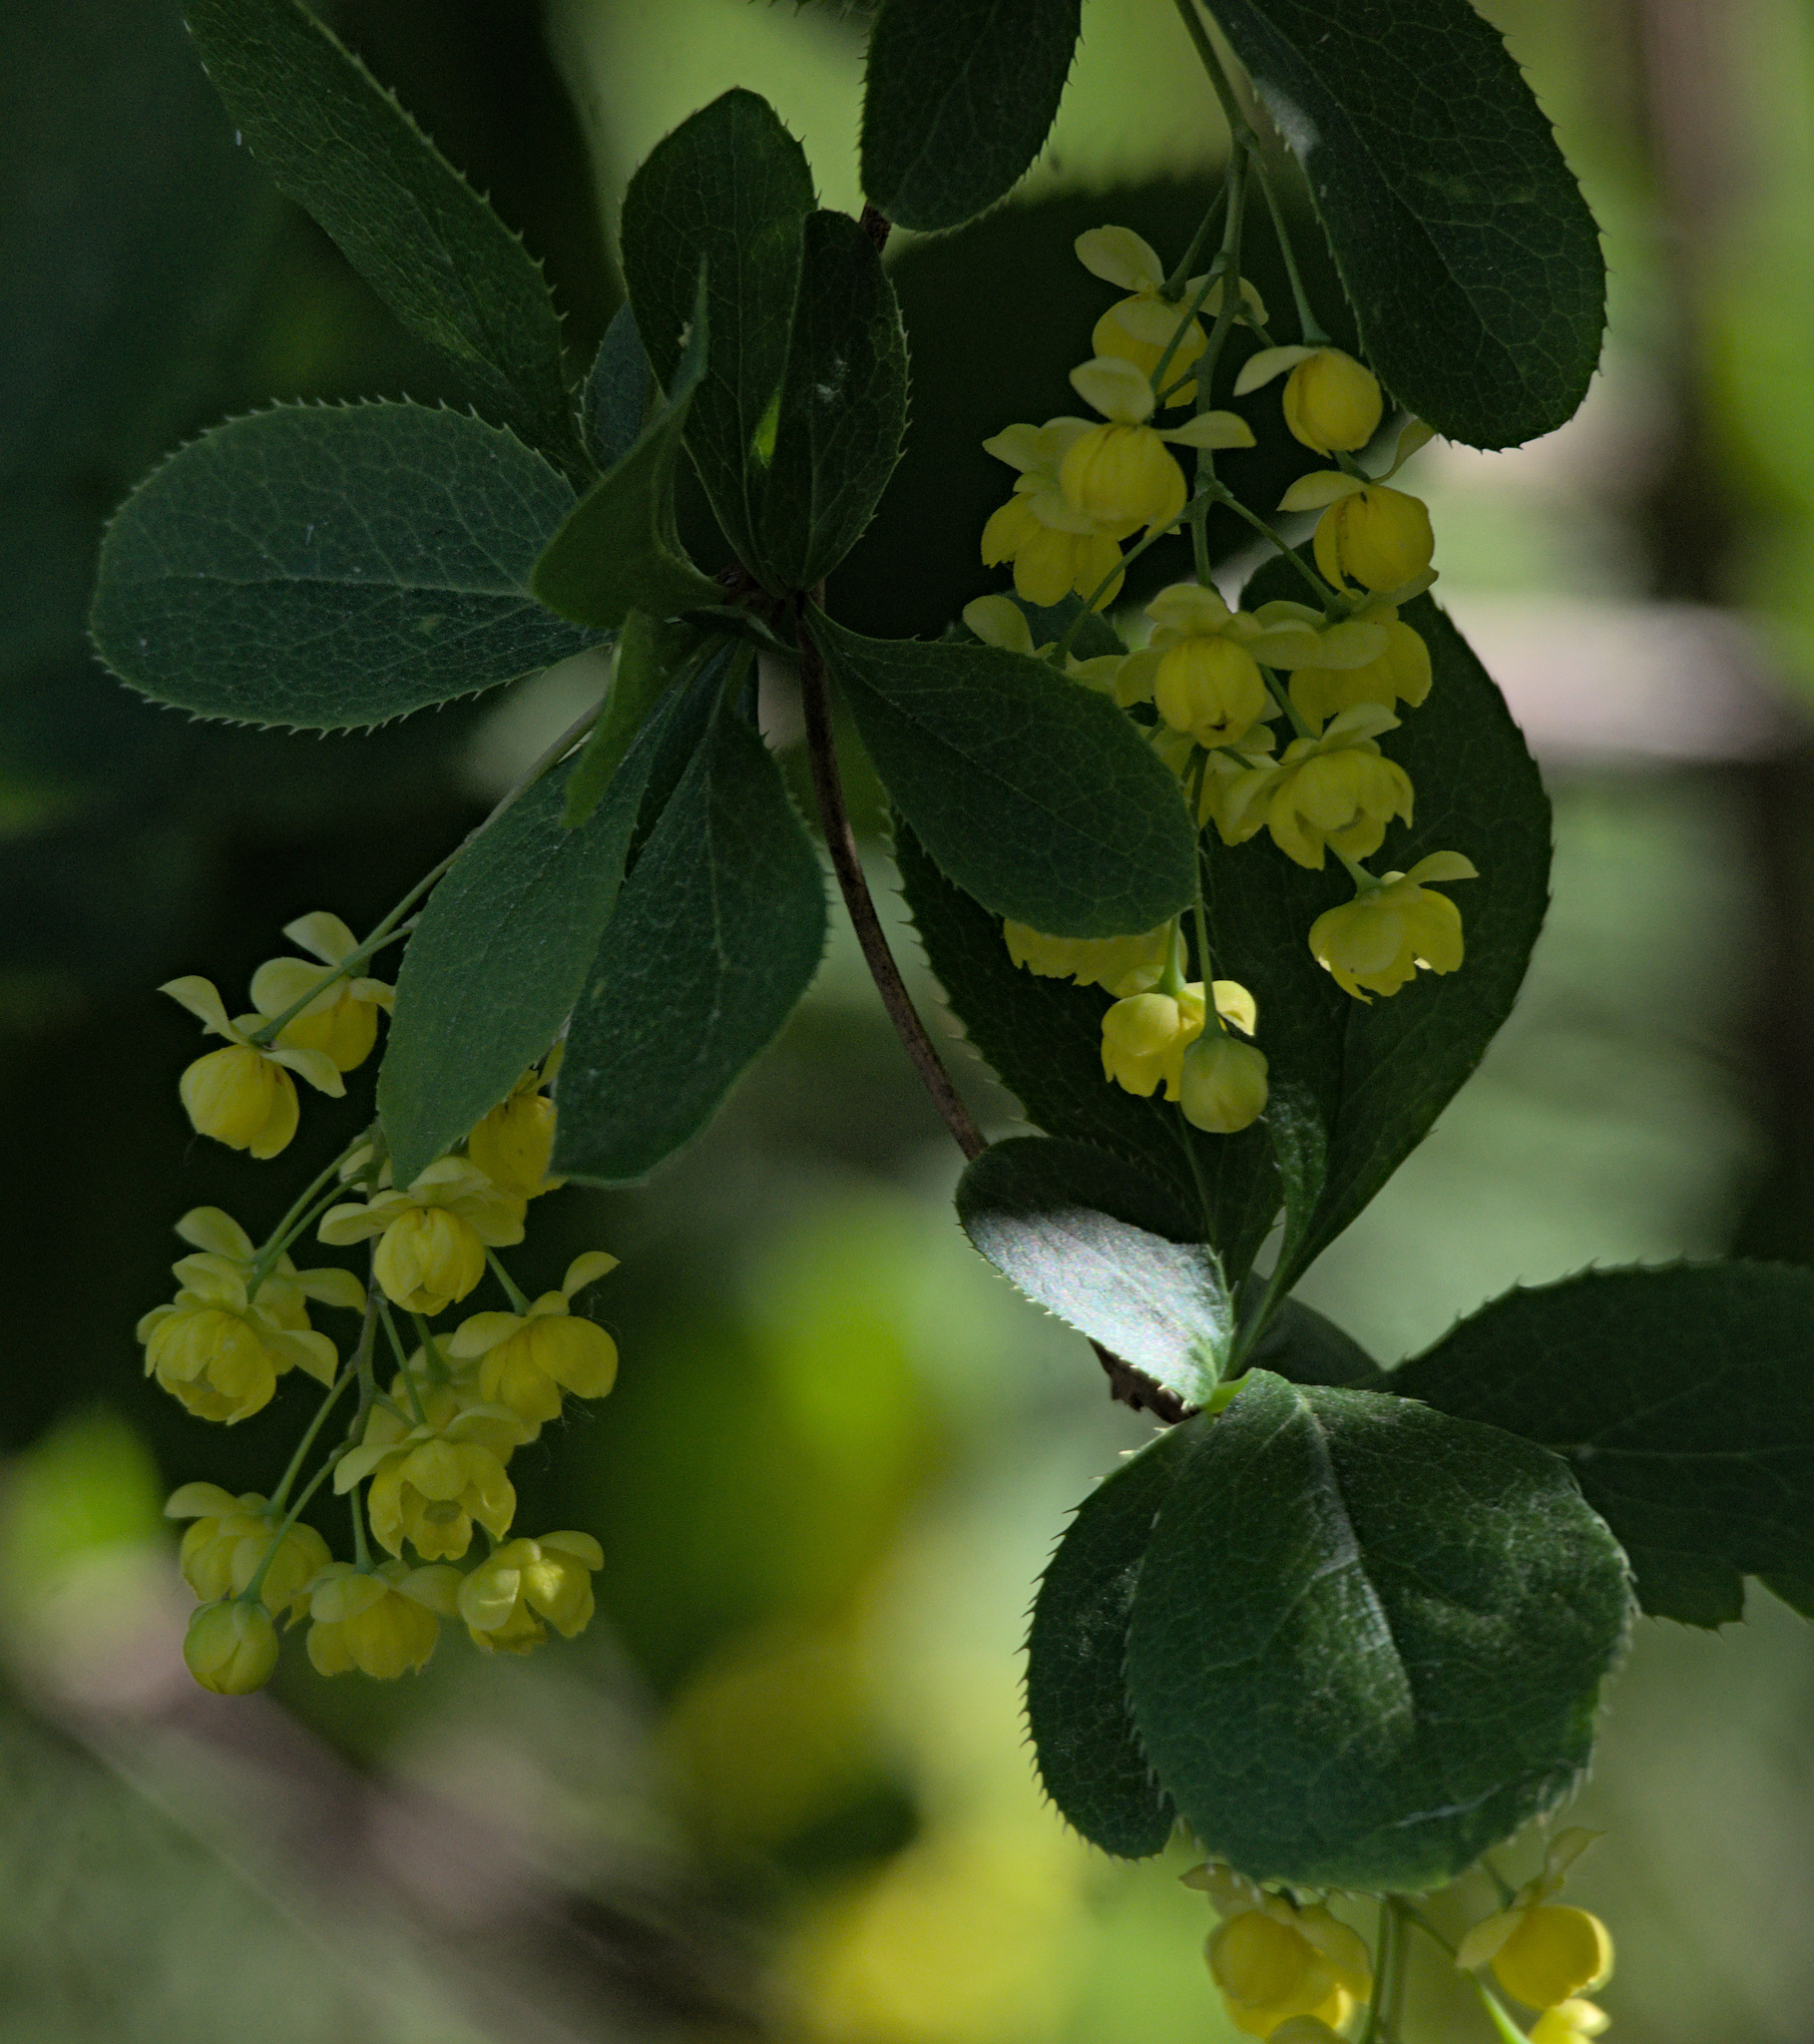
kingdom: Plantae
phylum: Tracheophyta
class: Magnoliopsida
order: Ranunculales
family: Berberidaceae
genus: Berberis
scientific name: Berberis vulgaris
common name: Barberry
